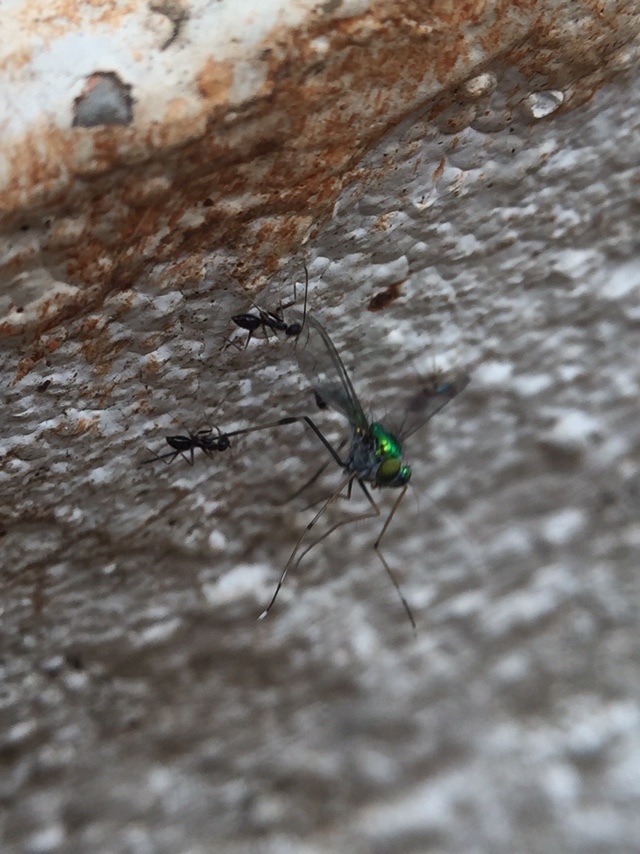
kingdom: Animalia
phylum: Arthropoda
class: Insecta
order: Hymenoptera
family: Formicidae
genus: Paratrechina
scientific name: Paratrechina longicornis
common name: Longhorned crazy ant
